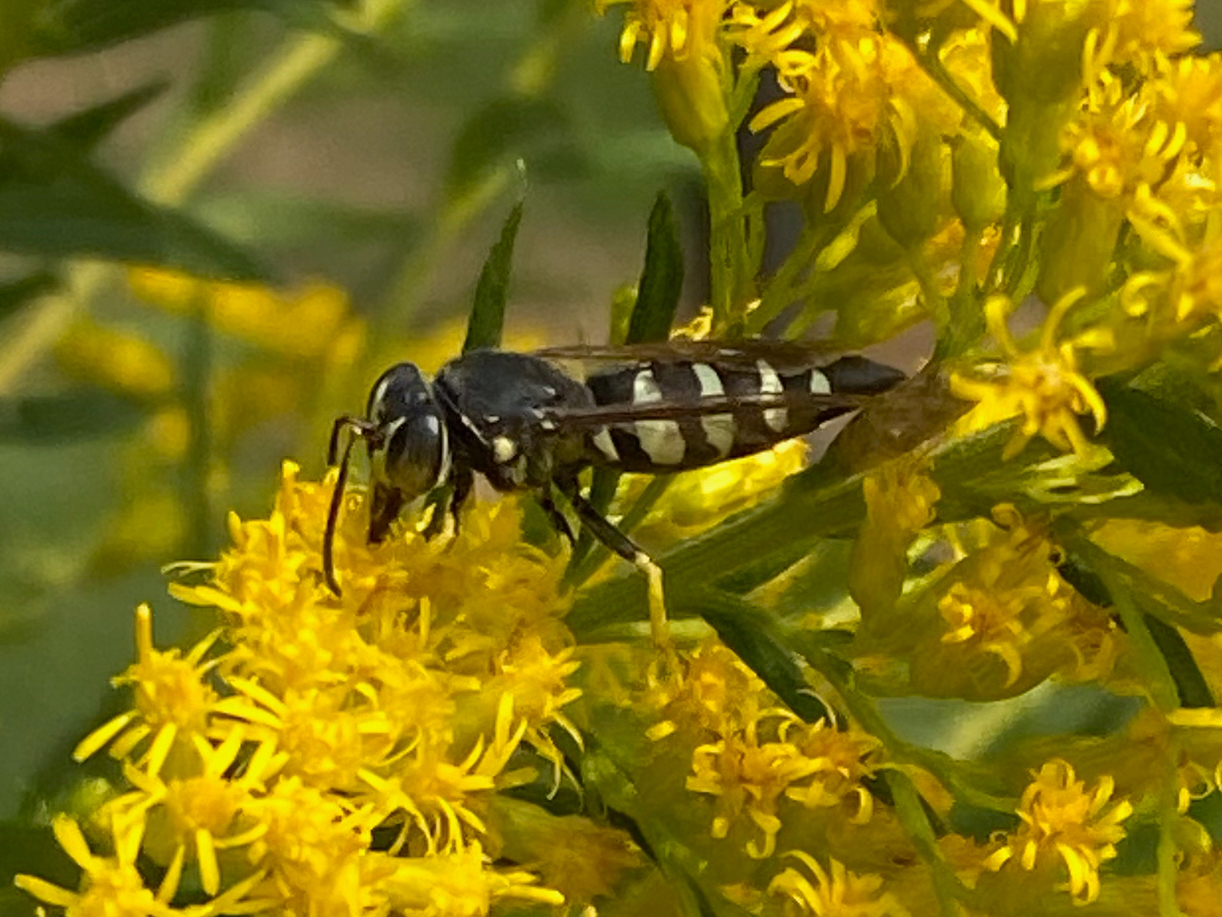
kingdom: Animalia
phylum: Arthropoda
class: Insecta
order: Hymenoptera
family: Crabronidae
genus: Bicyrtes
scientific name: Bicyrtes quadrifasciatus
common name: Four-banded stink bug hunter wasp
